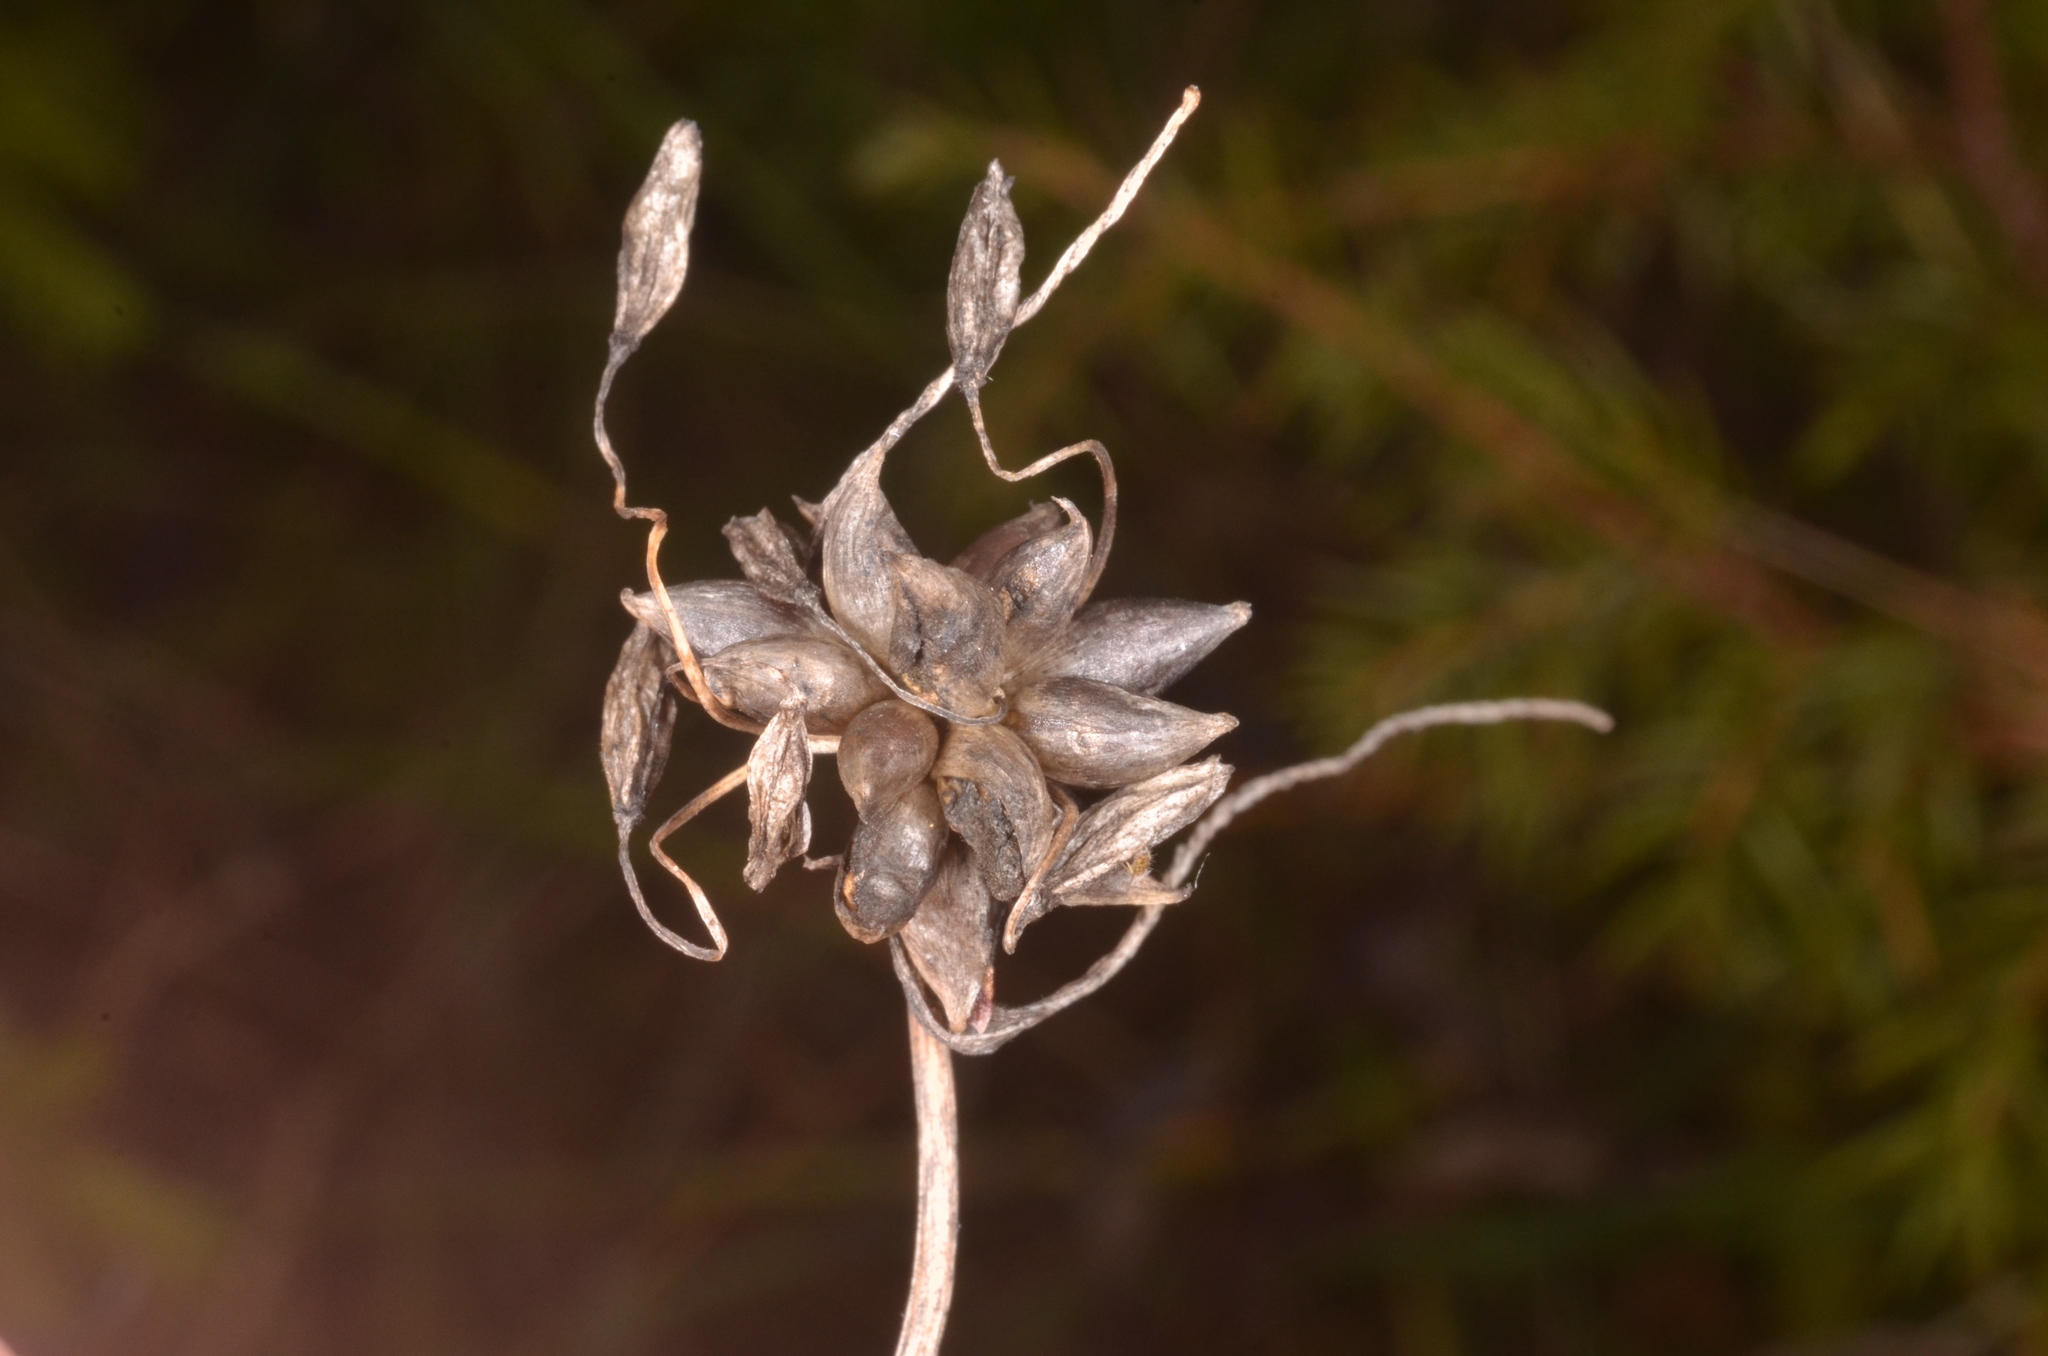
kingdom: Plantae
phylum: Tracheophyta
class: Liliopsida
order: Asparagales
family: Amaryllidaceae
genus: Allium
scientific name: Allium oleraceum
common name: Field garlic
